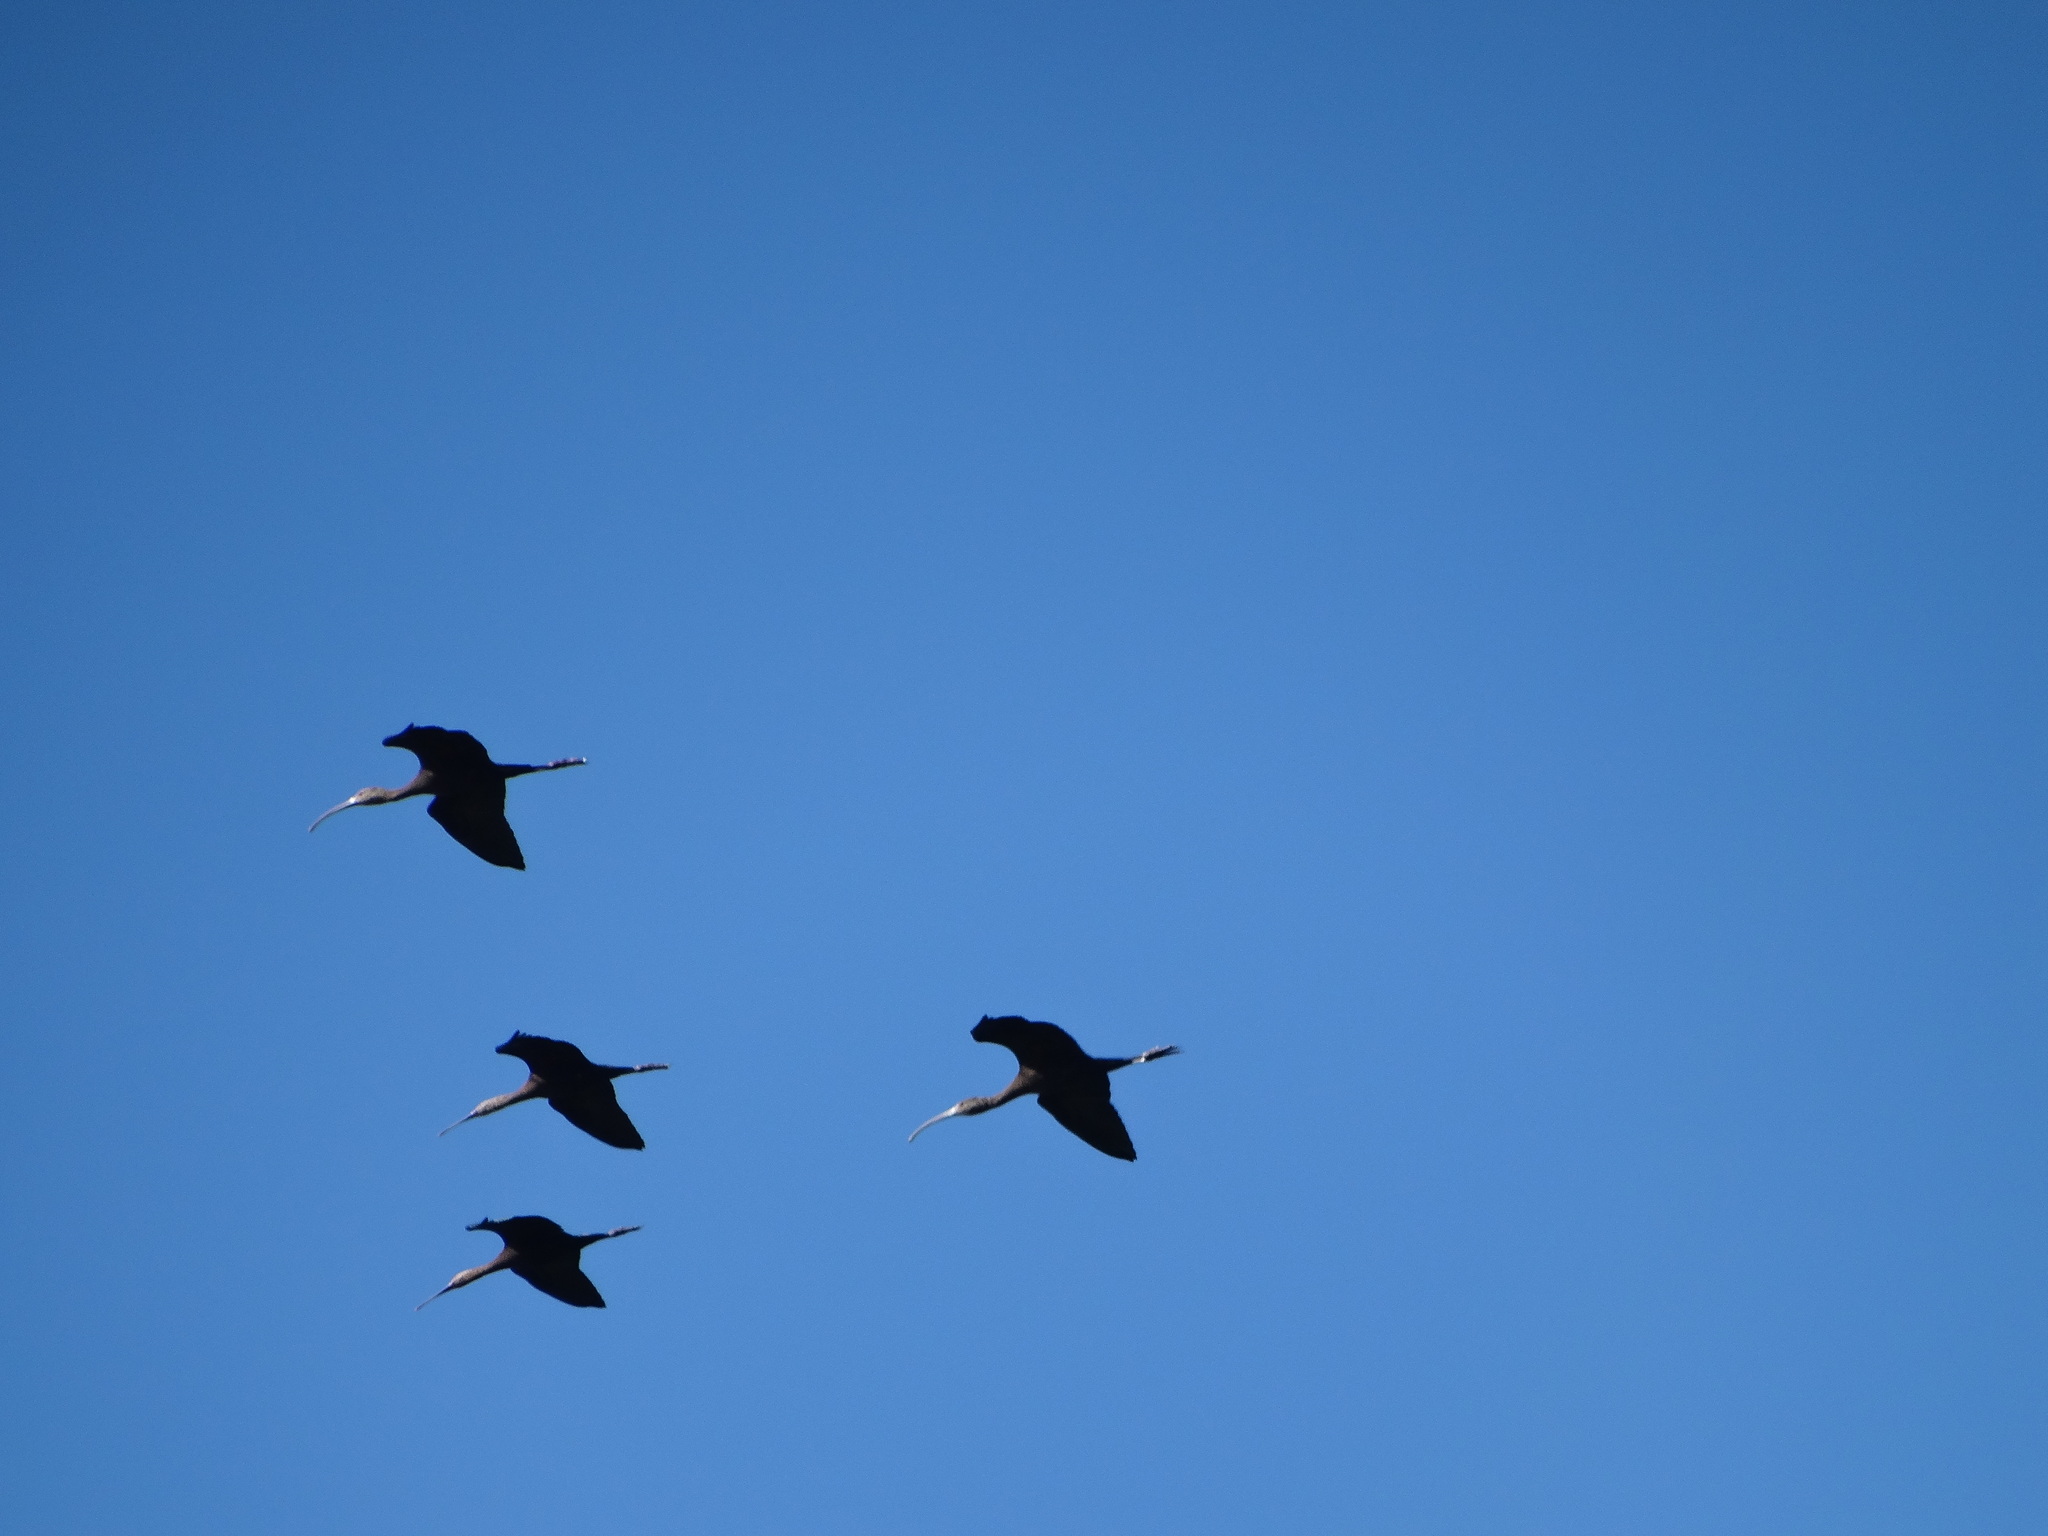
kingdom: Animalia
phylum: Chordata
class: Aves
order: Pelecaniformes
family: Threskiornithidae
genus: Plegadis
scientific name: Plegadis chihi
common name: White-faced ibis
